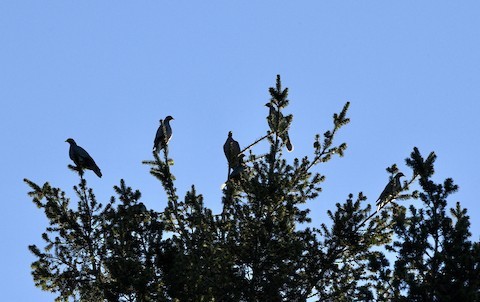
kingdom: Animalia
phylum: Chordata
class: Aves
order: Columbiformes
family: Columbidae
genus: Patagioenas
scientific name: Patagioenas fasciata
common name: Band-tailed pigeon
